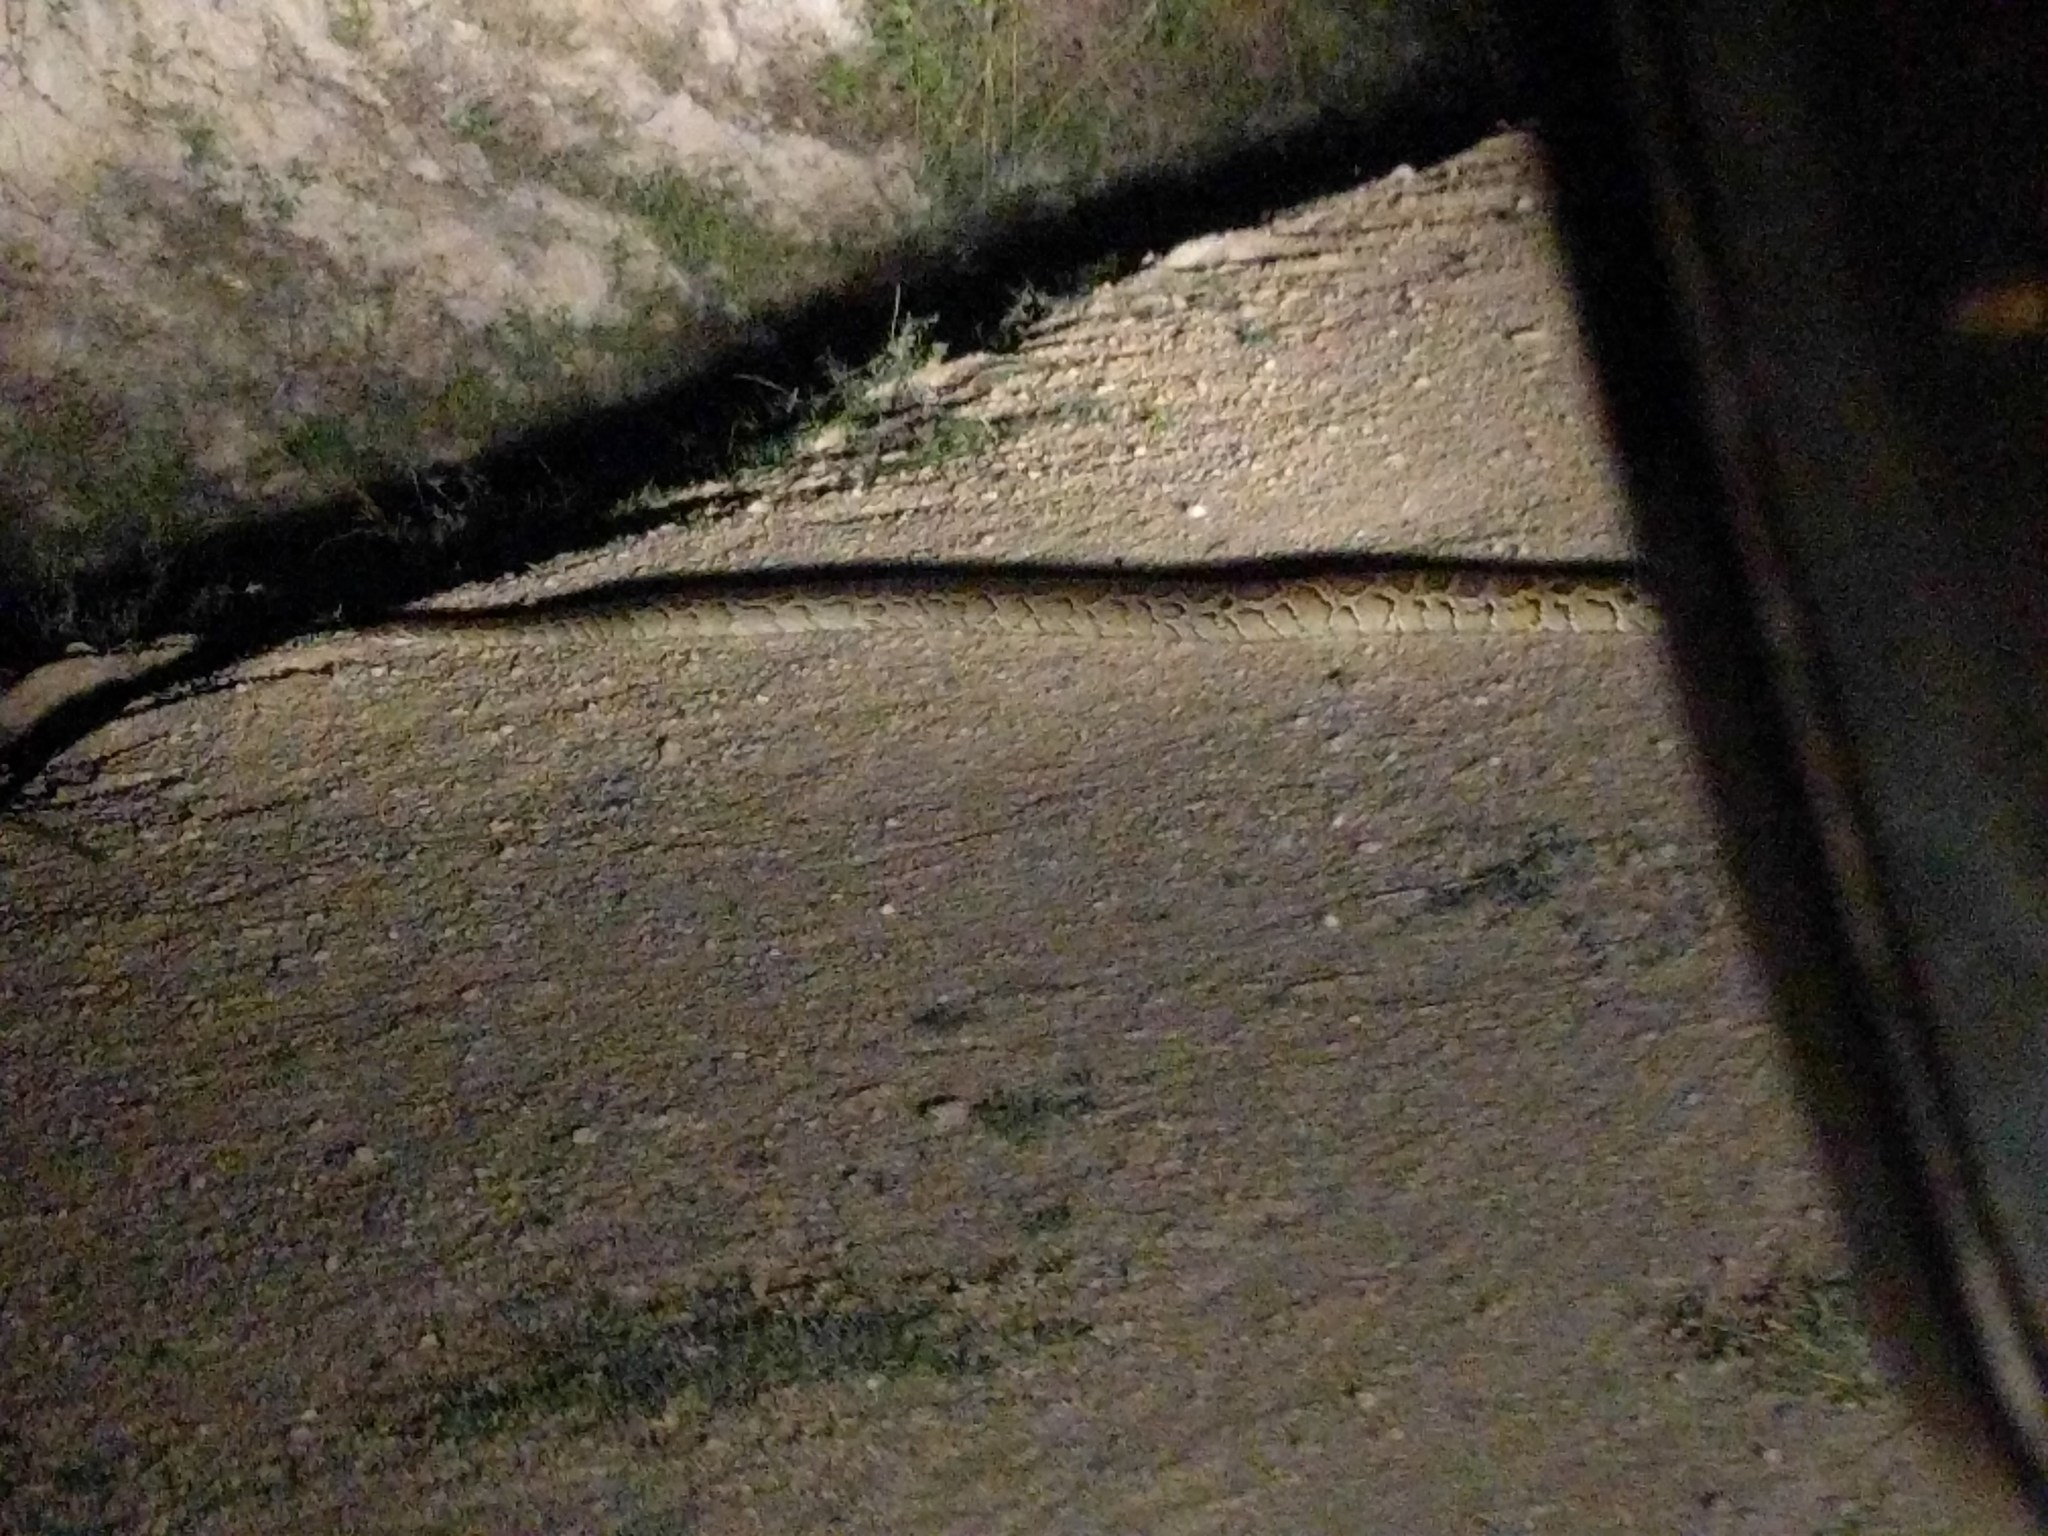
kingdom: Animalia
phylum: Chordata
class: Squamata
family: Pythonidae
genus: Python
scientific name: Python bivittatus
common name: Burmese python
